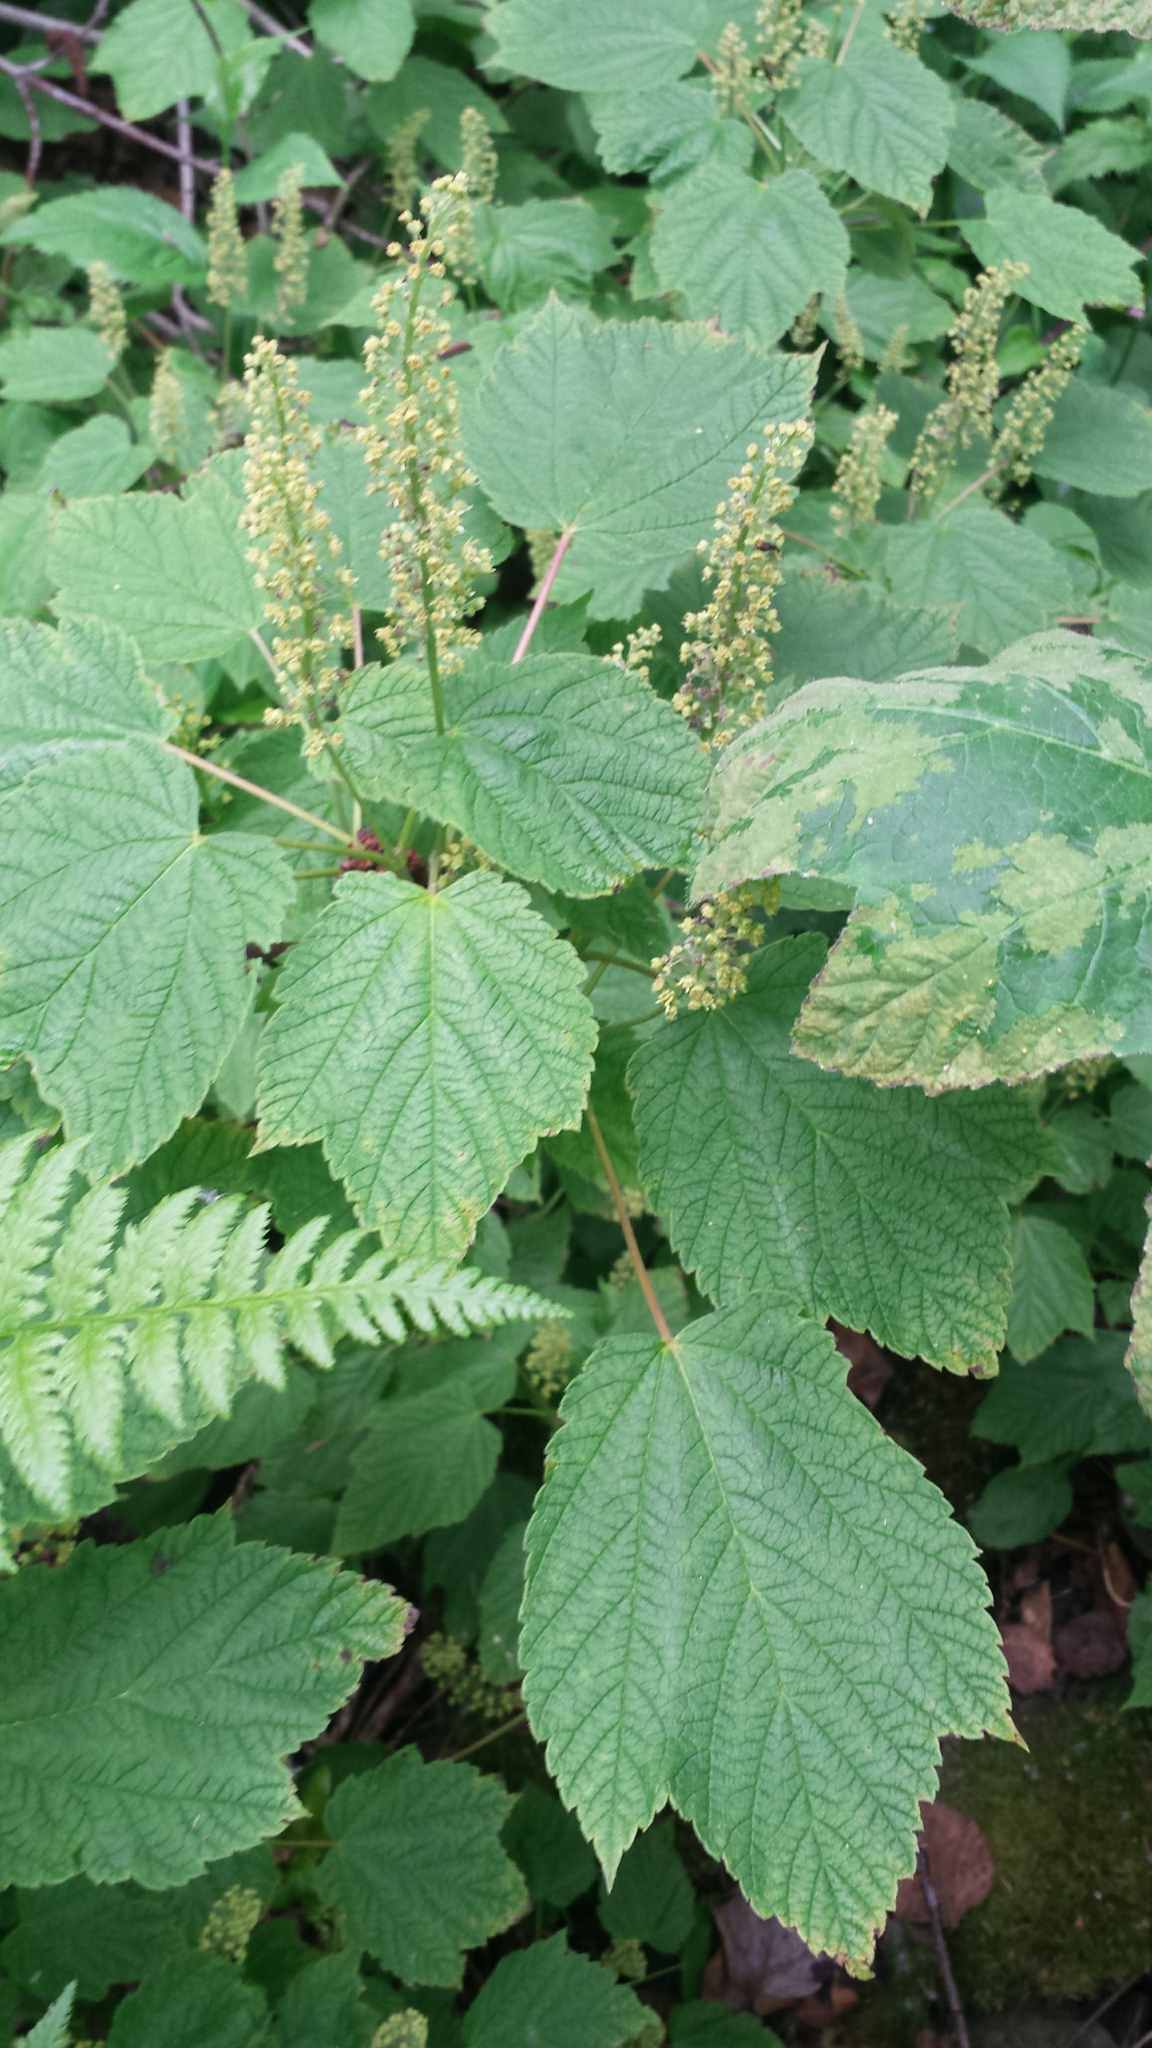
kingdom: Plantae
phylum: Tracheophyta
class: Magnoliopsida
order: Sapindales
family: Sapindaceae
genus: Acer
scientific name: Acer spicatum
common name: Mountain maple
